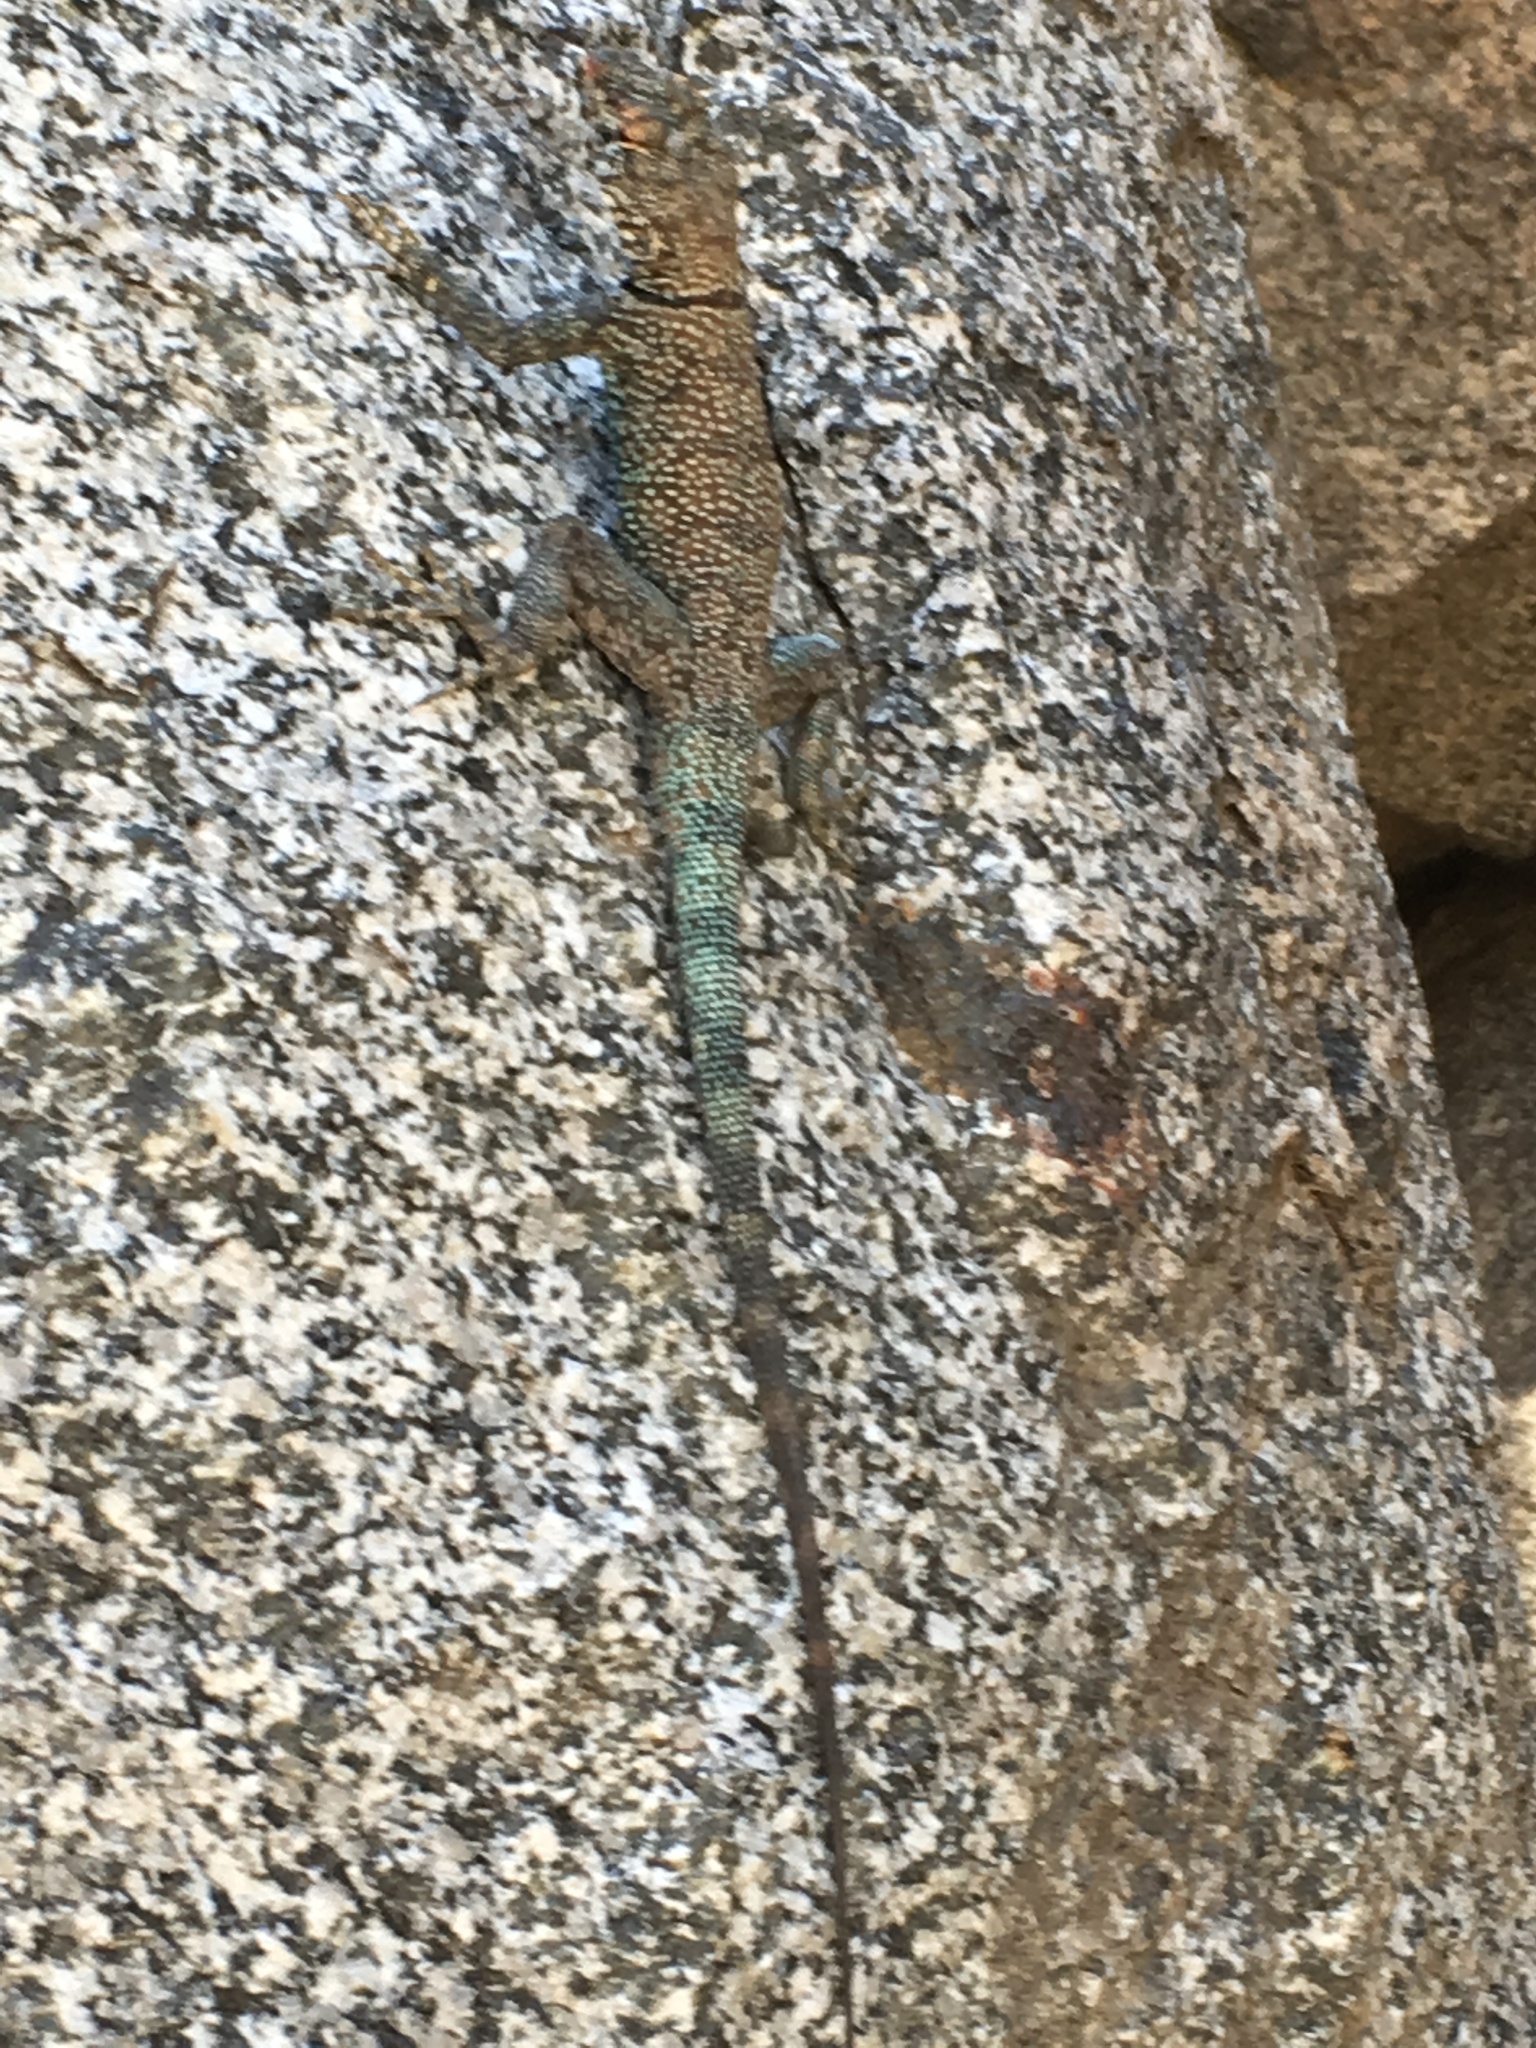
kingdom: Animalia
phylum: Chordata
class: Squamata
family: Phrynosomatidae
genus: Petrosaurus
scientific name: Petrosaurus mearnsi
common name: Banded rock lizard
